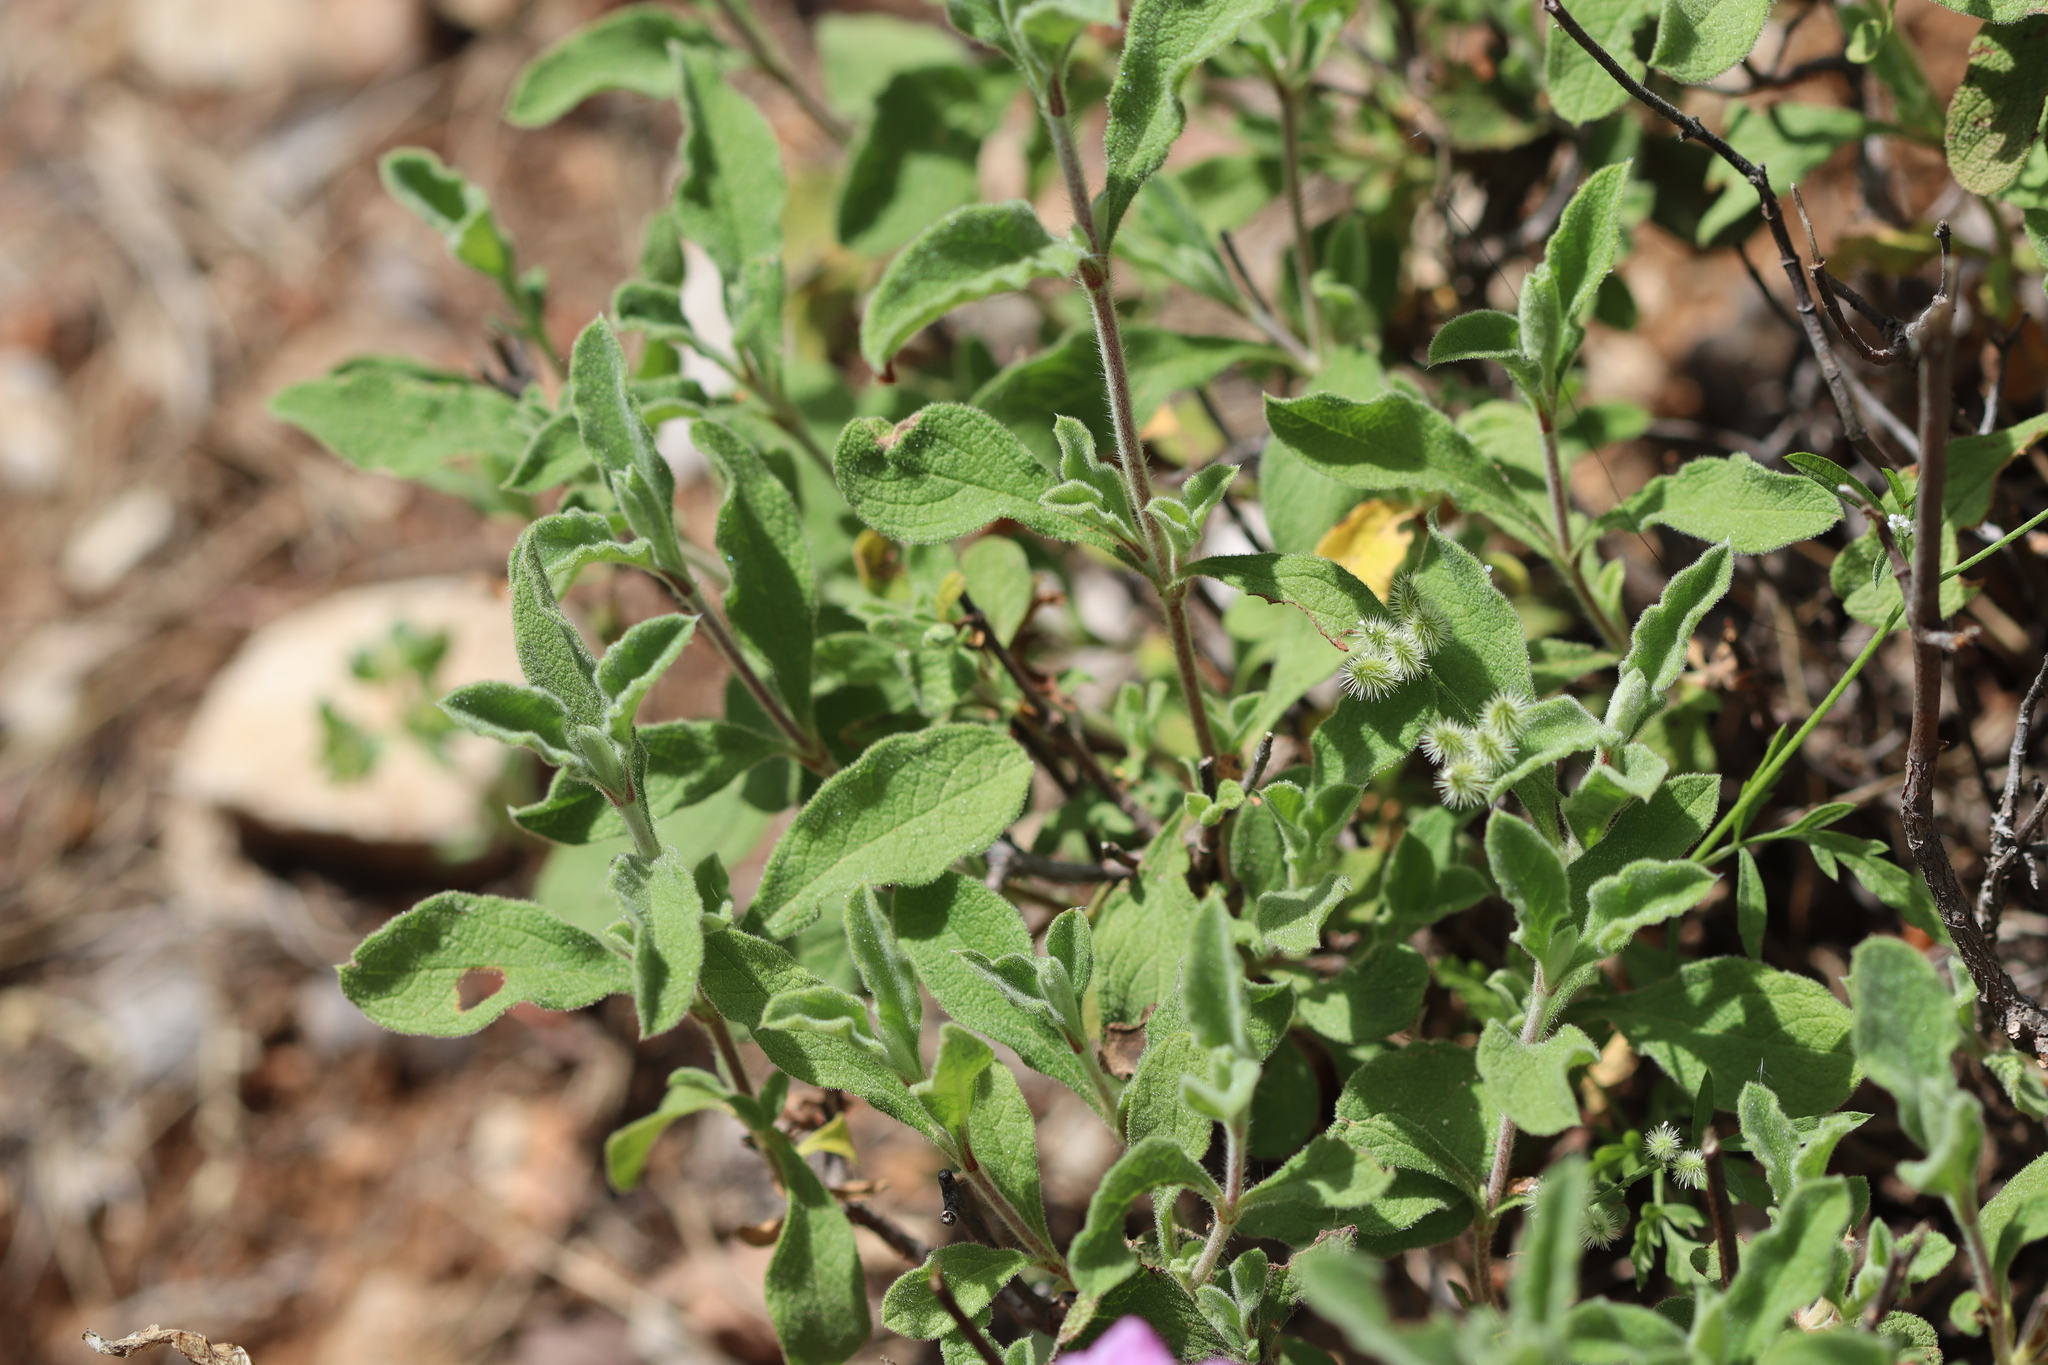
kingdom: Plantae
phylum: Tracheophyta
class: Magnoliopsida
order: Malvales
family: Cistaceae
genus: Cistus
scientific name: Cistus creticus
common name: Cretan rockrose
